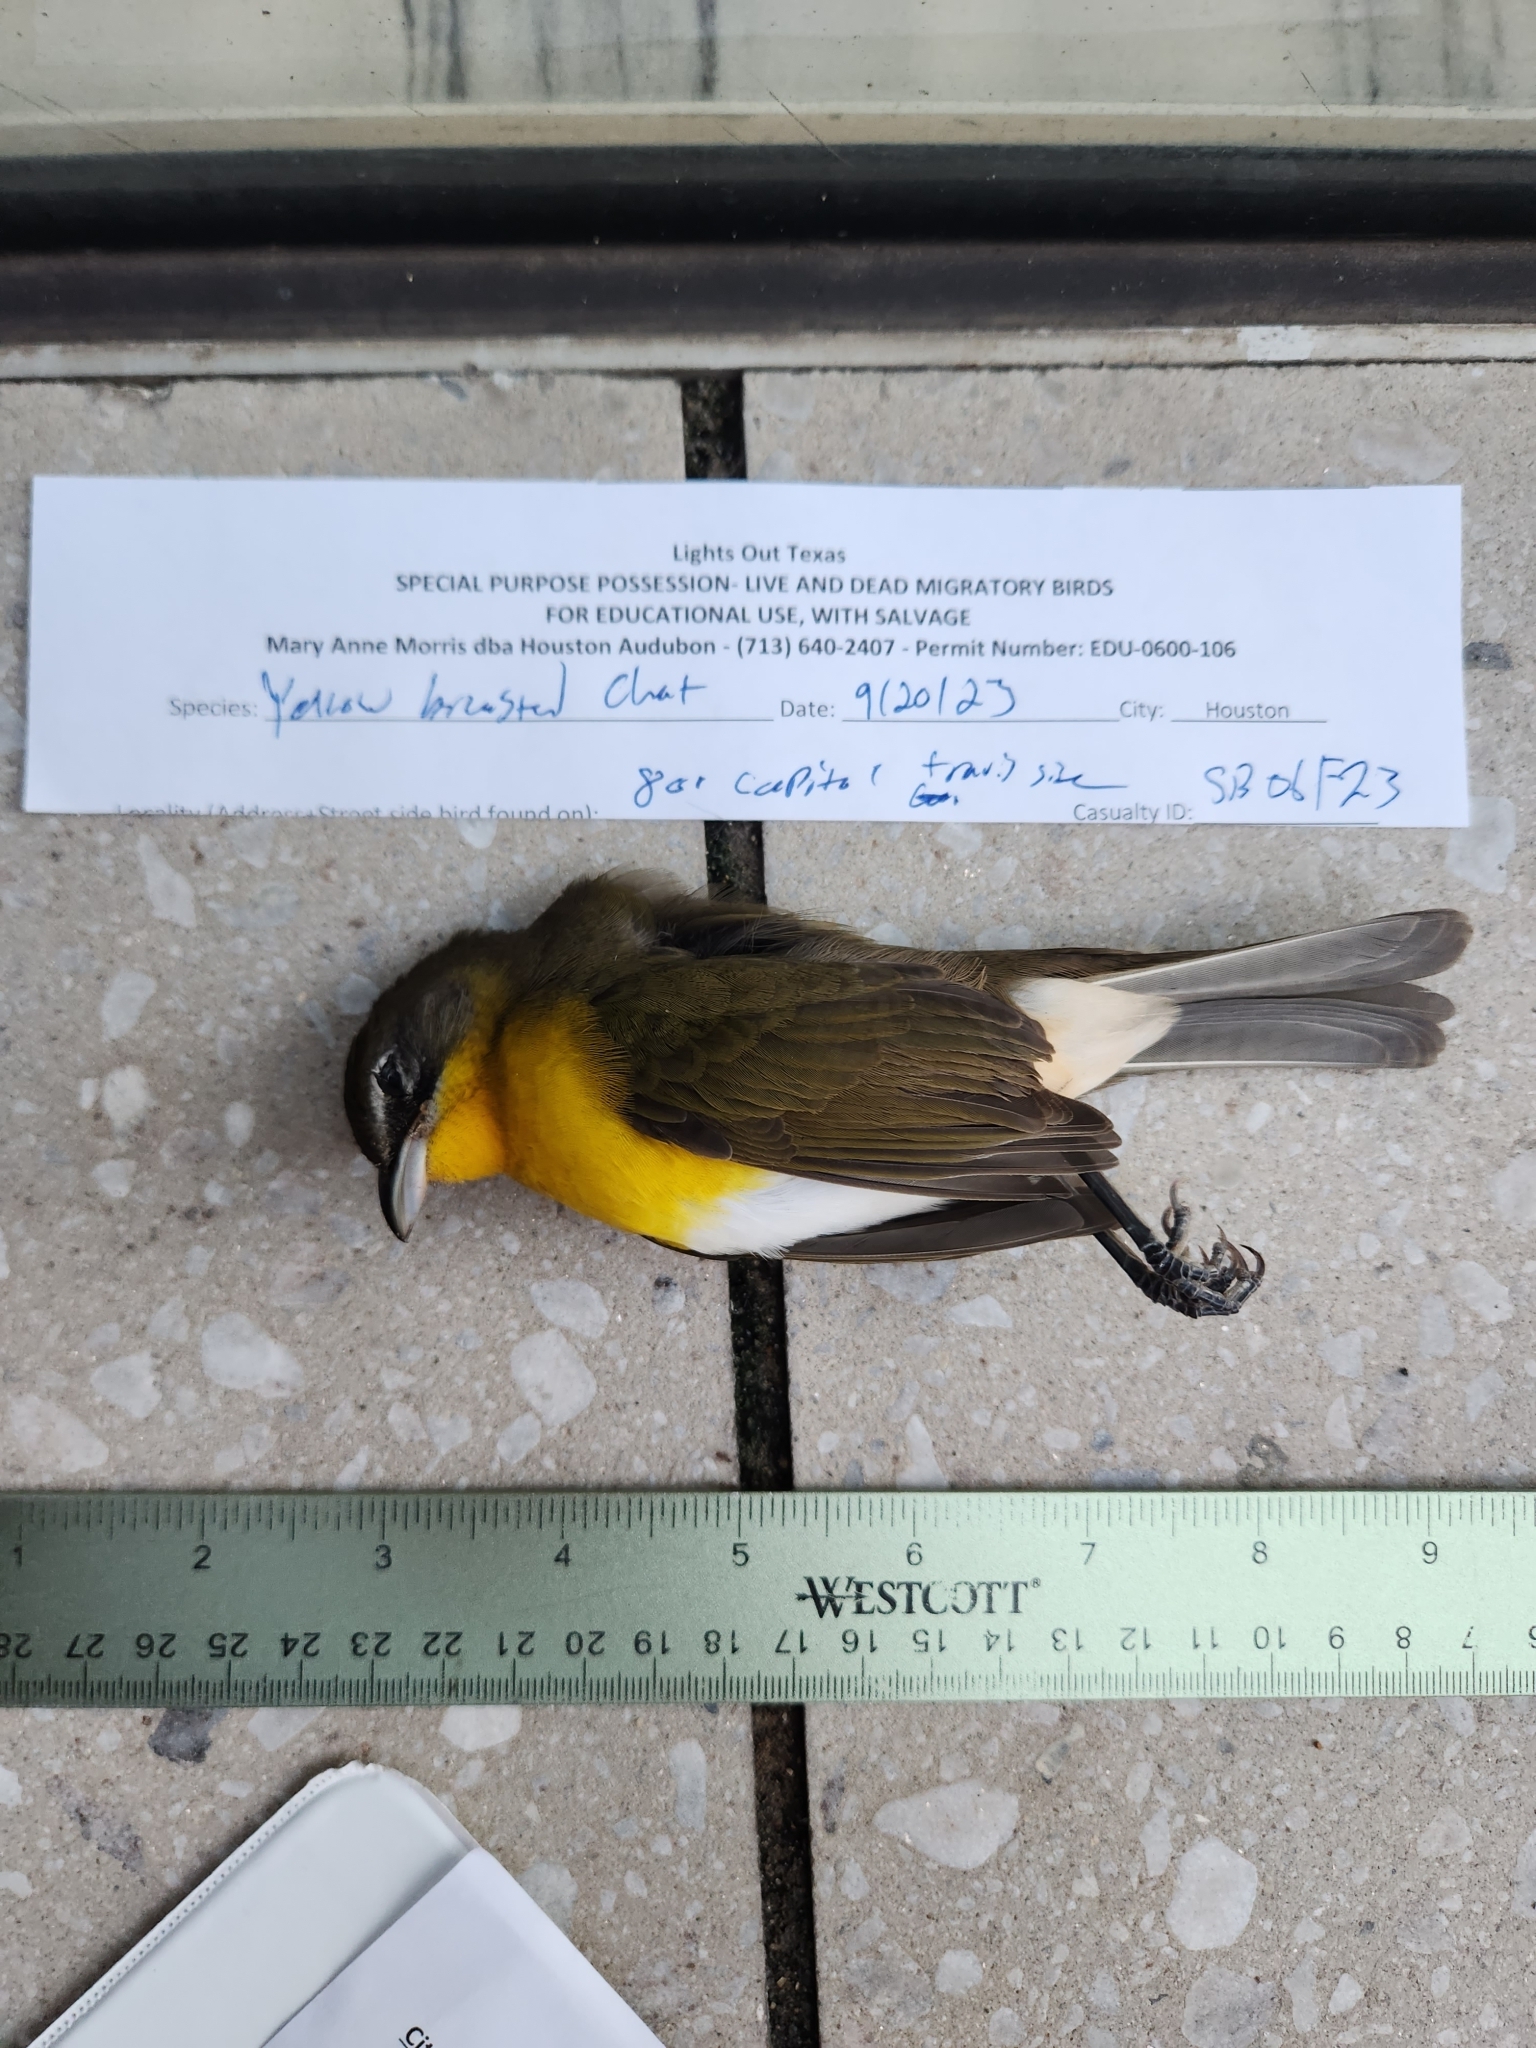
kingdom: Animalia
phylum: Chordata
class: Aves
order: Passeriformes
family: Parulidae
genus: Icteria
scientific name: Icteria virens
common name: Yellow-breasted chat
